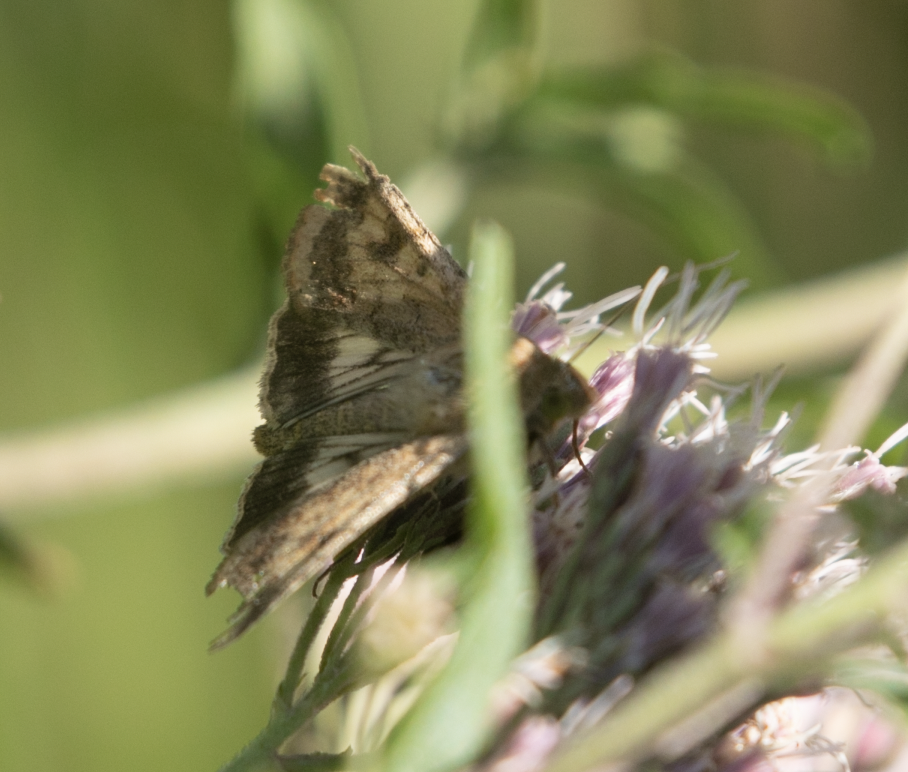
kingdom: Animalia
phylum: Arthropoda
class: Insecta
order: Lepidoptera
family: Noctuidae
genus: Helicoverpa
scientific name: Helicoverpa armigera
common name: Cotton bollworm
